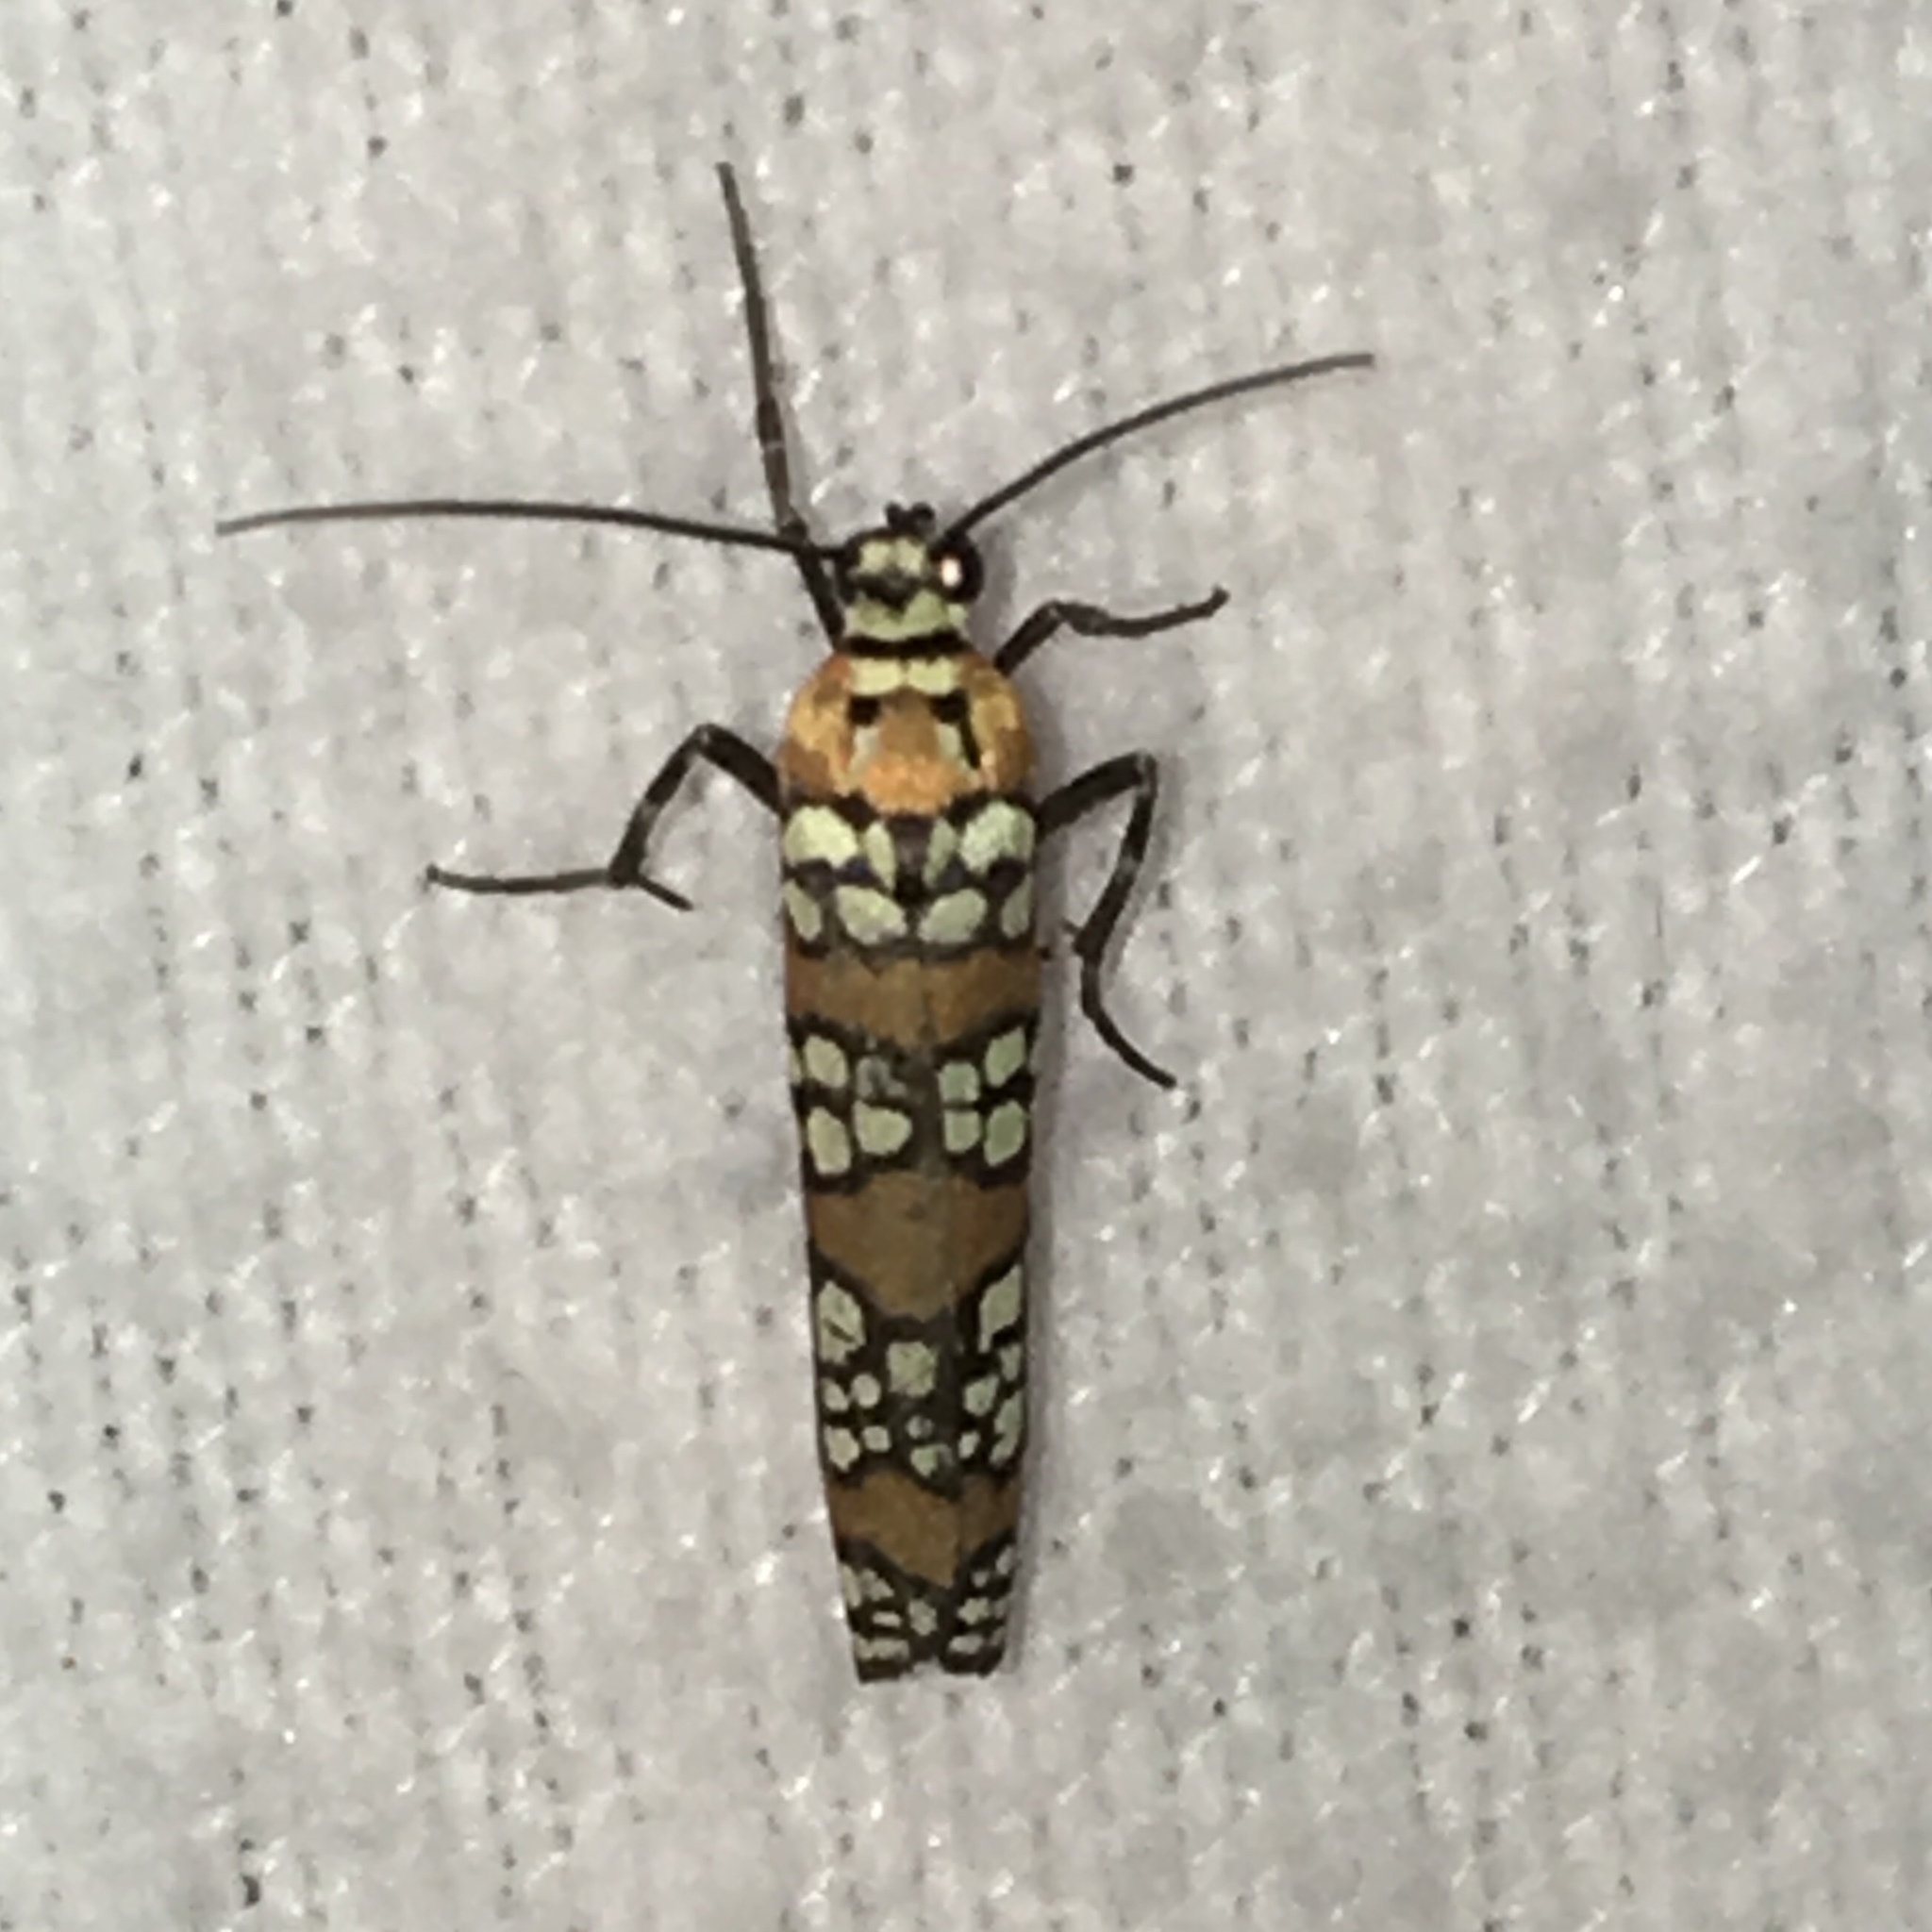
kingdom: Animalia
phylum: Arthropoda
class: Insecta
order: Lepidoptera
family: Attevidae
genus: Atteva
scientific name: Atteva punctella
